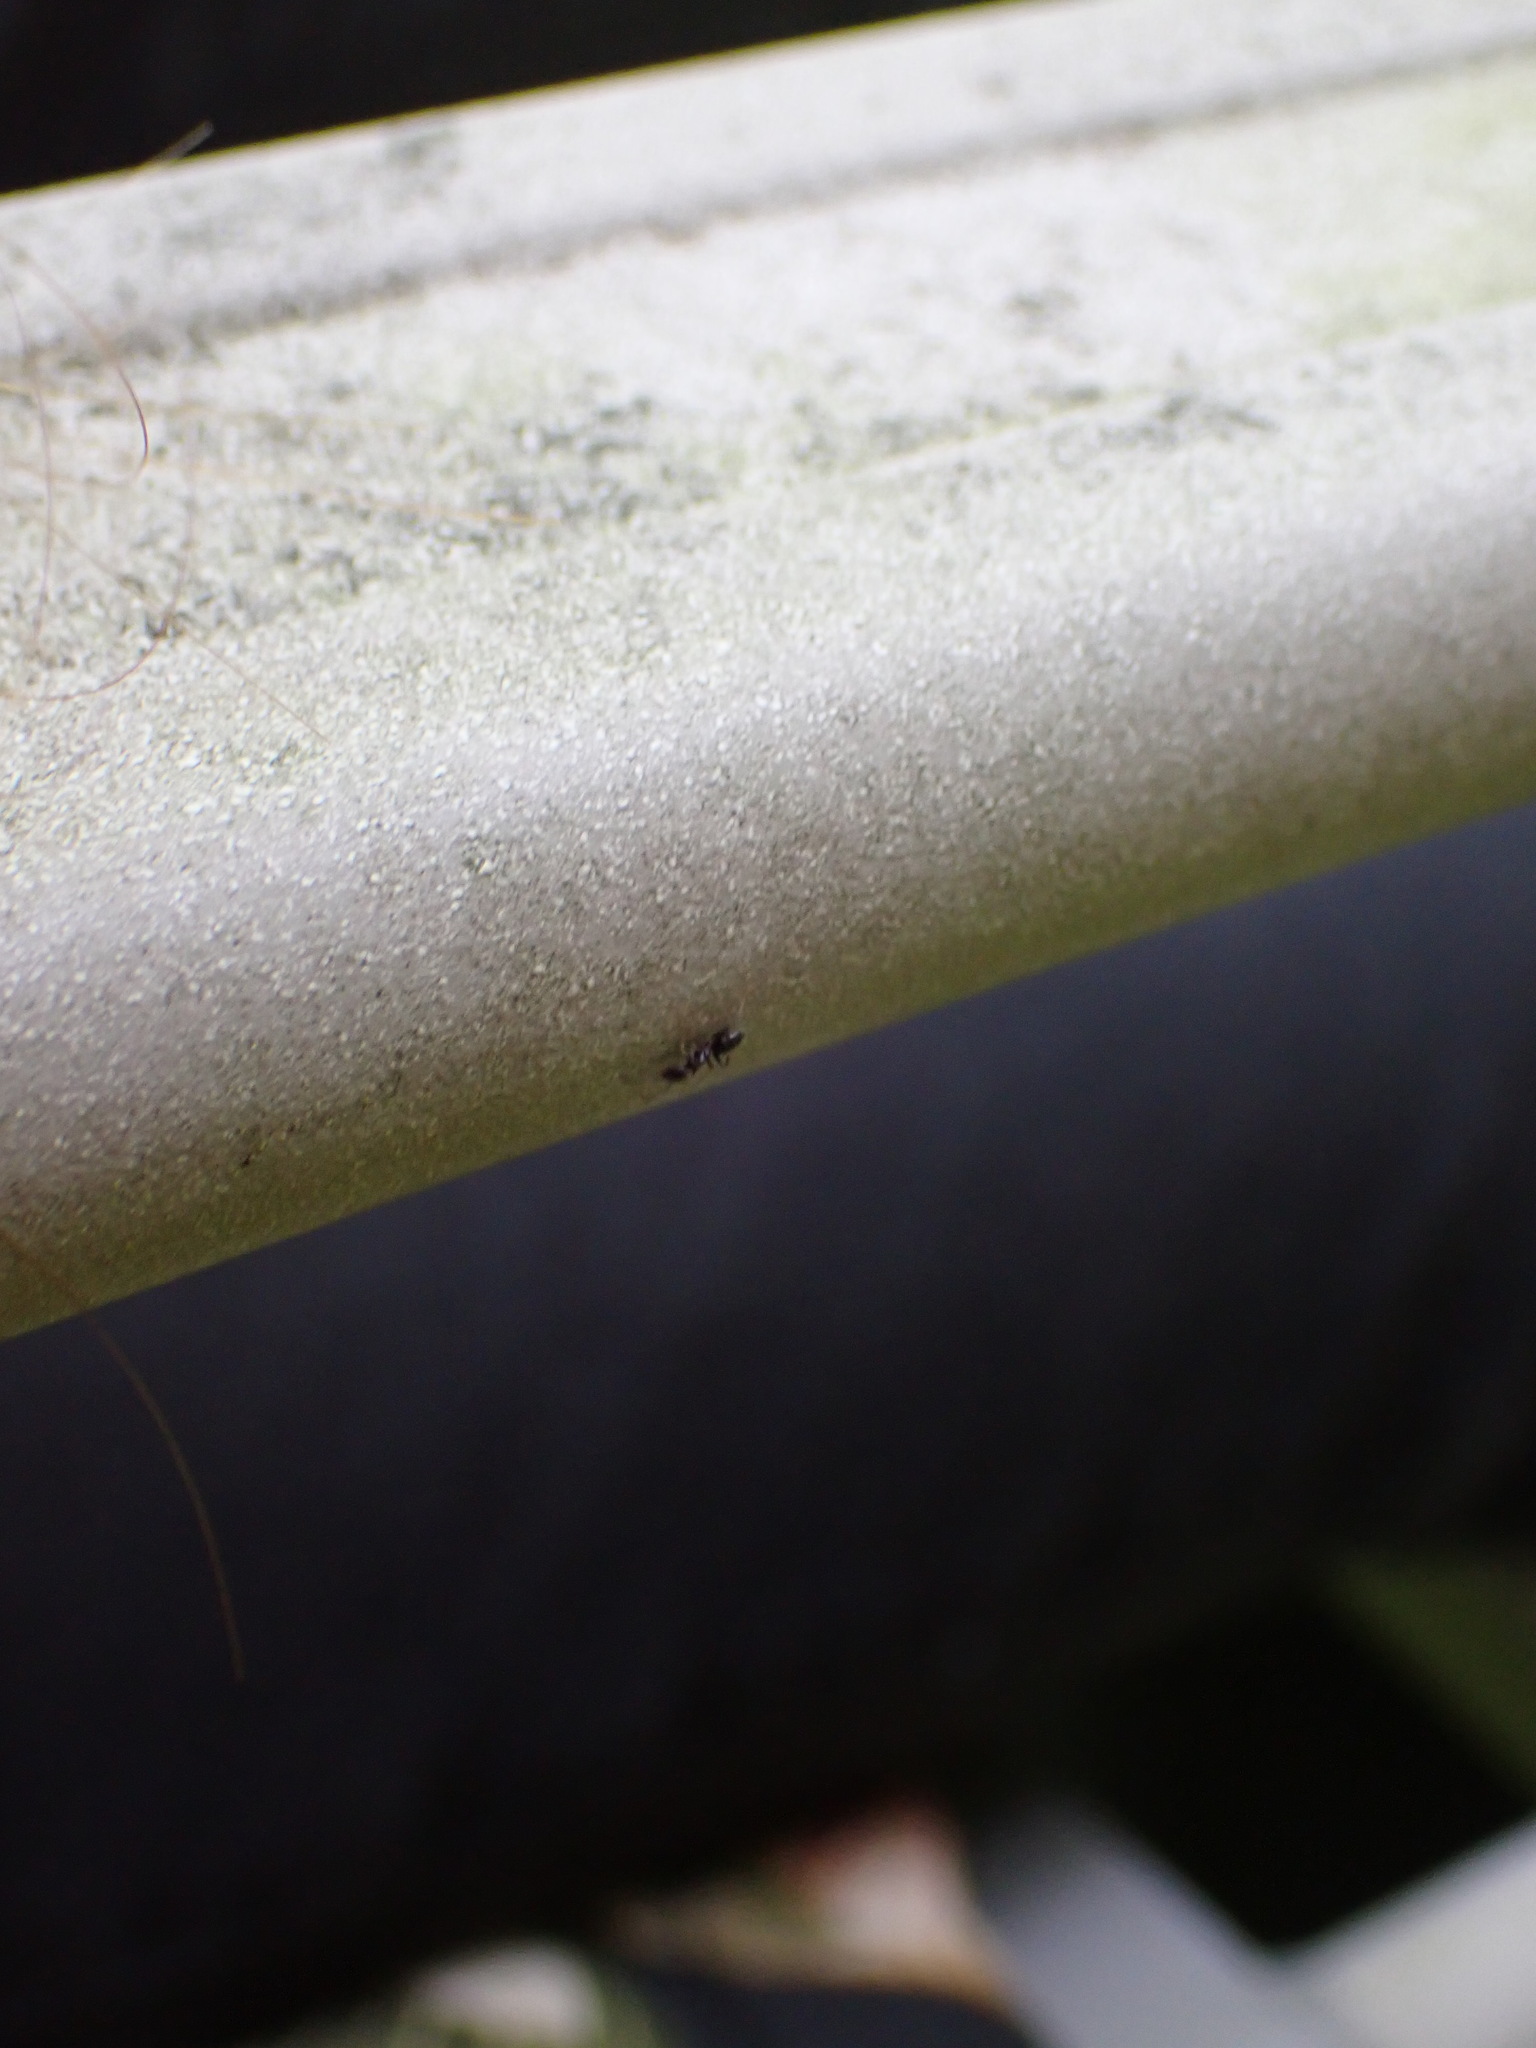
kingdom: Animalia
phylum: Arthropoda
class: Insecta
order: Hymenoptera
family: Formicidae
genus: Tapinoma
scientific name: Tapinoma sessile
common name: Odorous house ant
